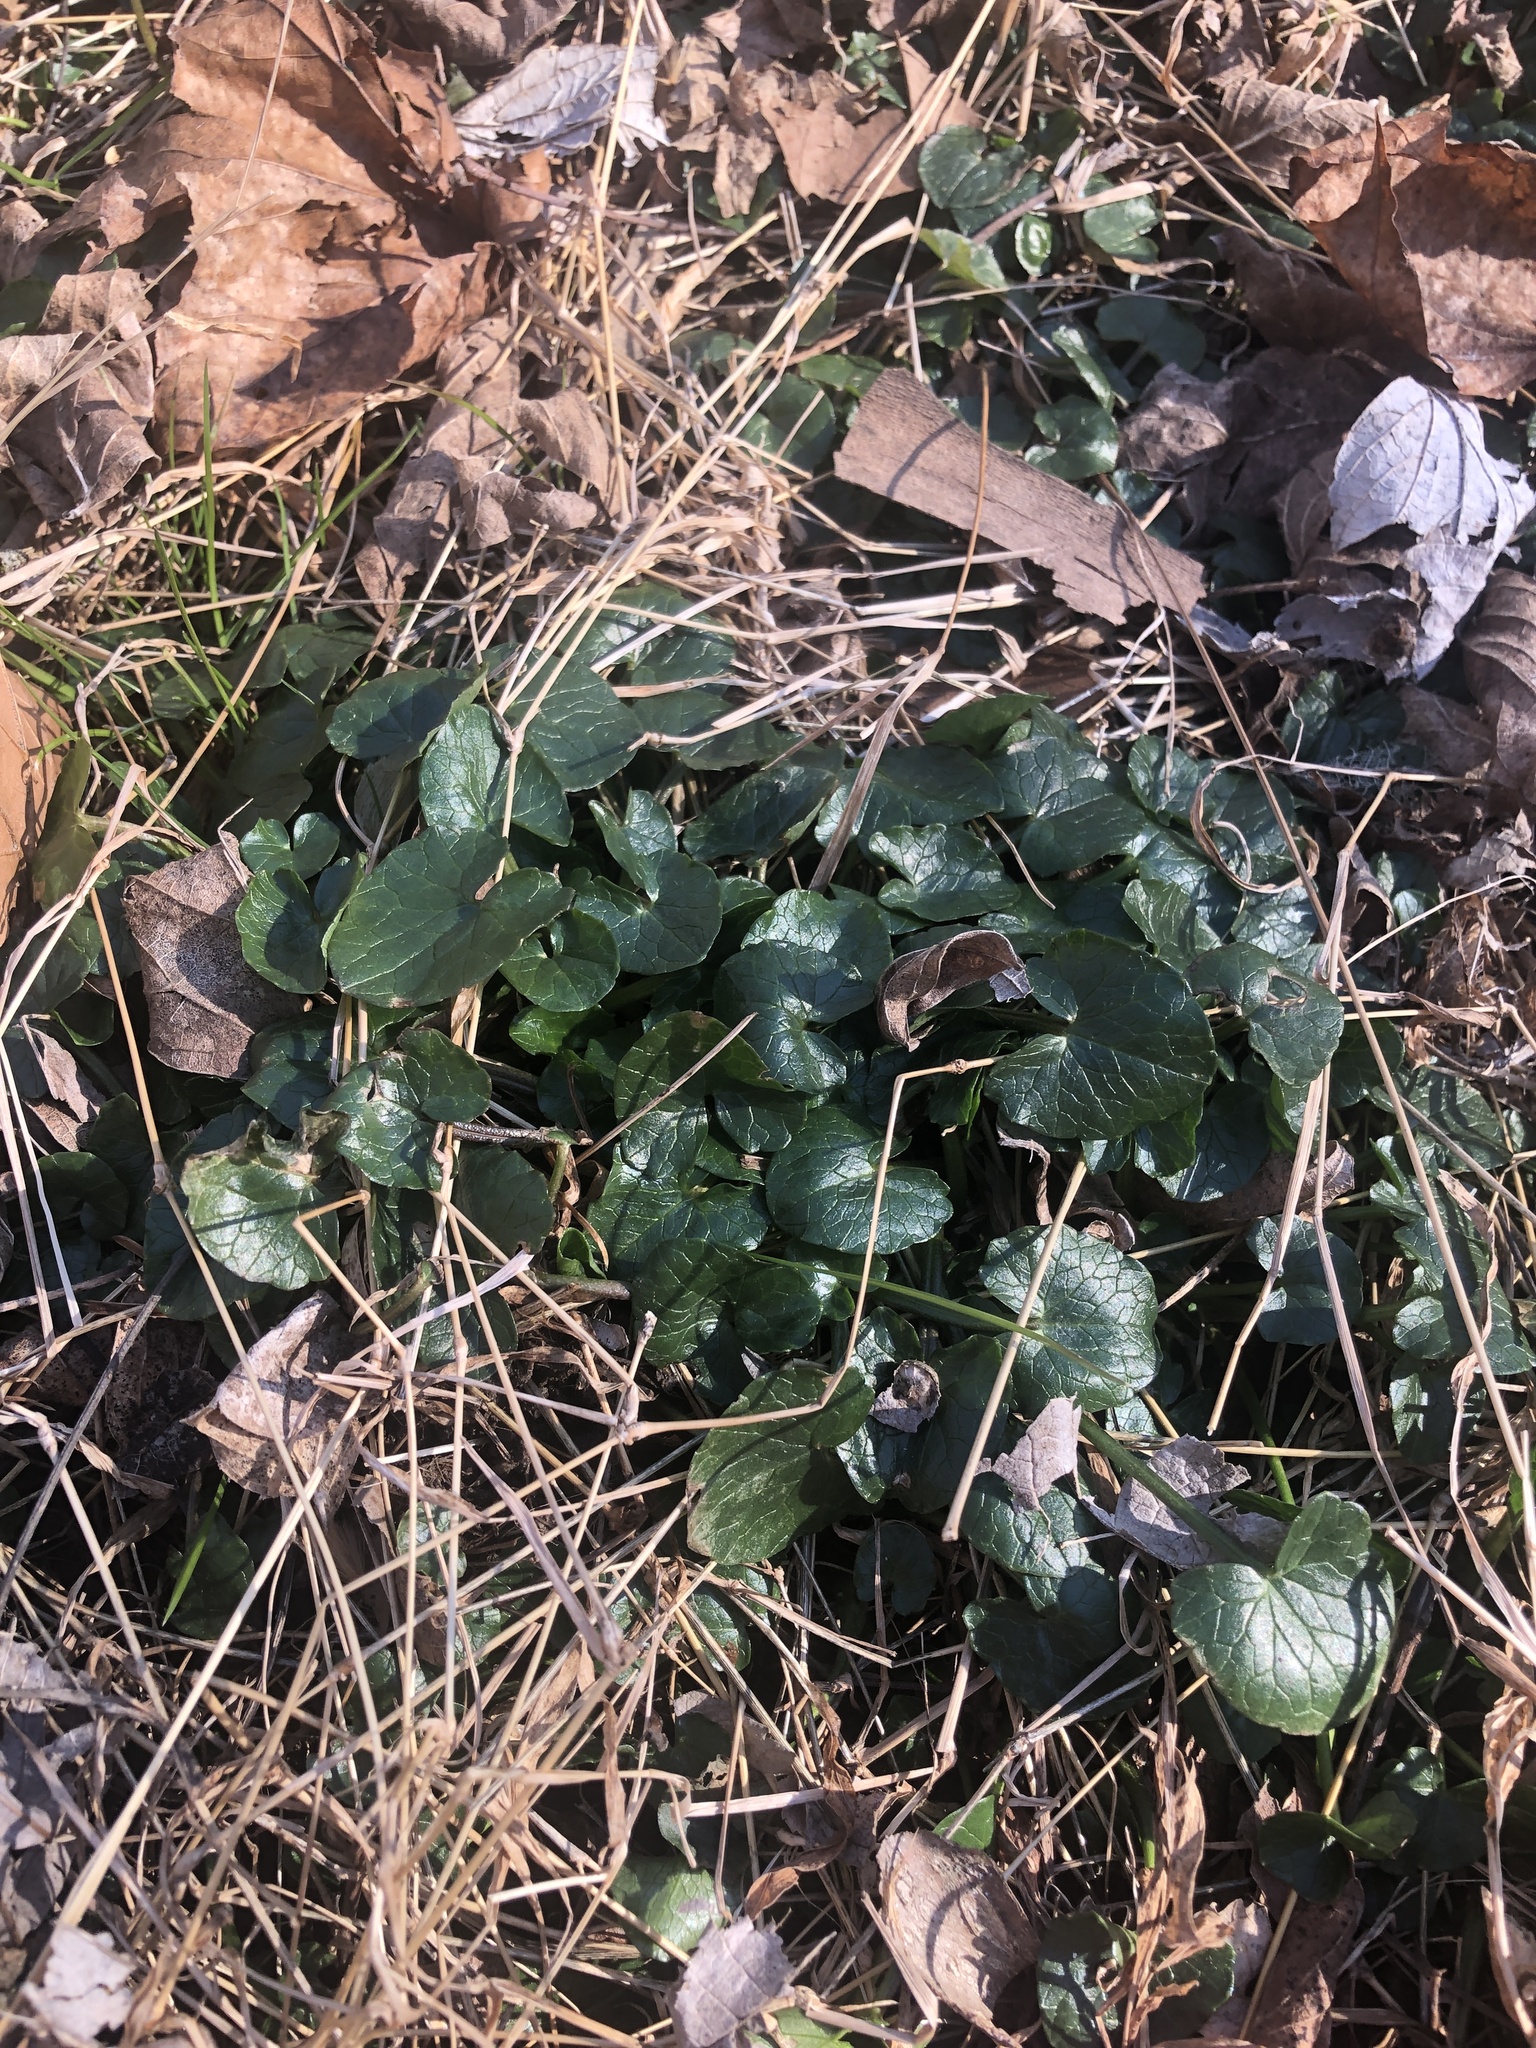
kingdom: Plantae
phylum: Tracheophyta
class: Magnoliopsida
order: Ranunculales
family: Ranunculaceae
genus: Ficaria
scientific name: Ficaria verna
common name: Lesser celandine
